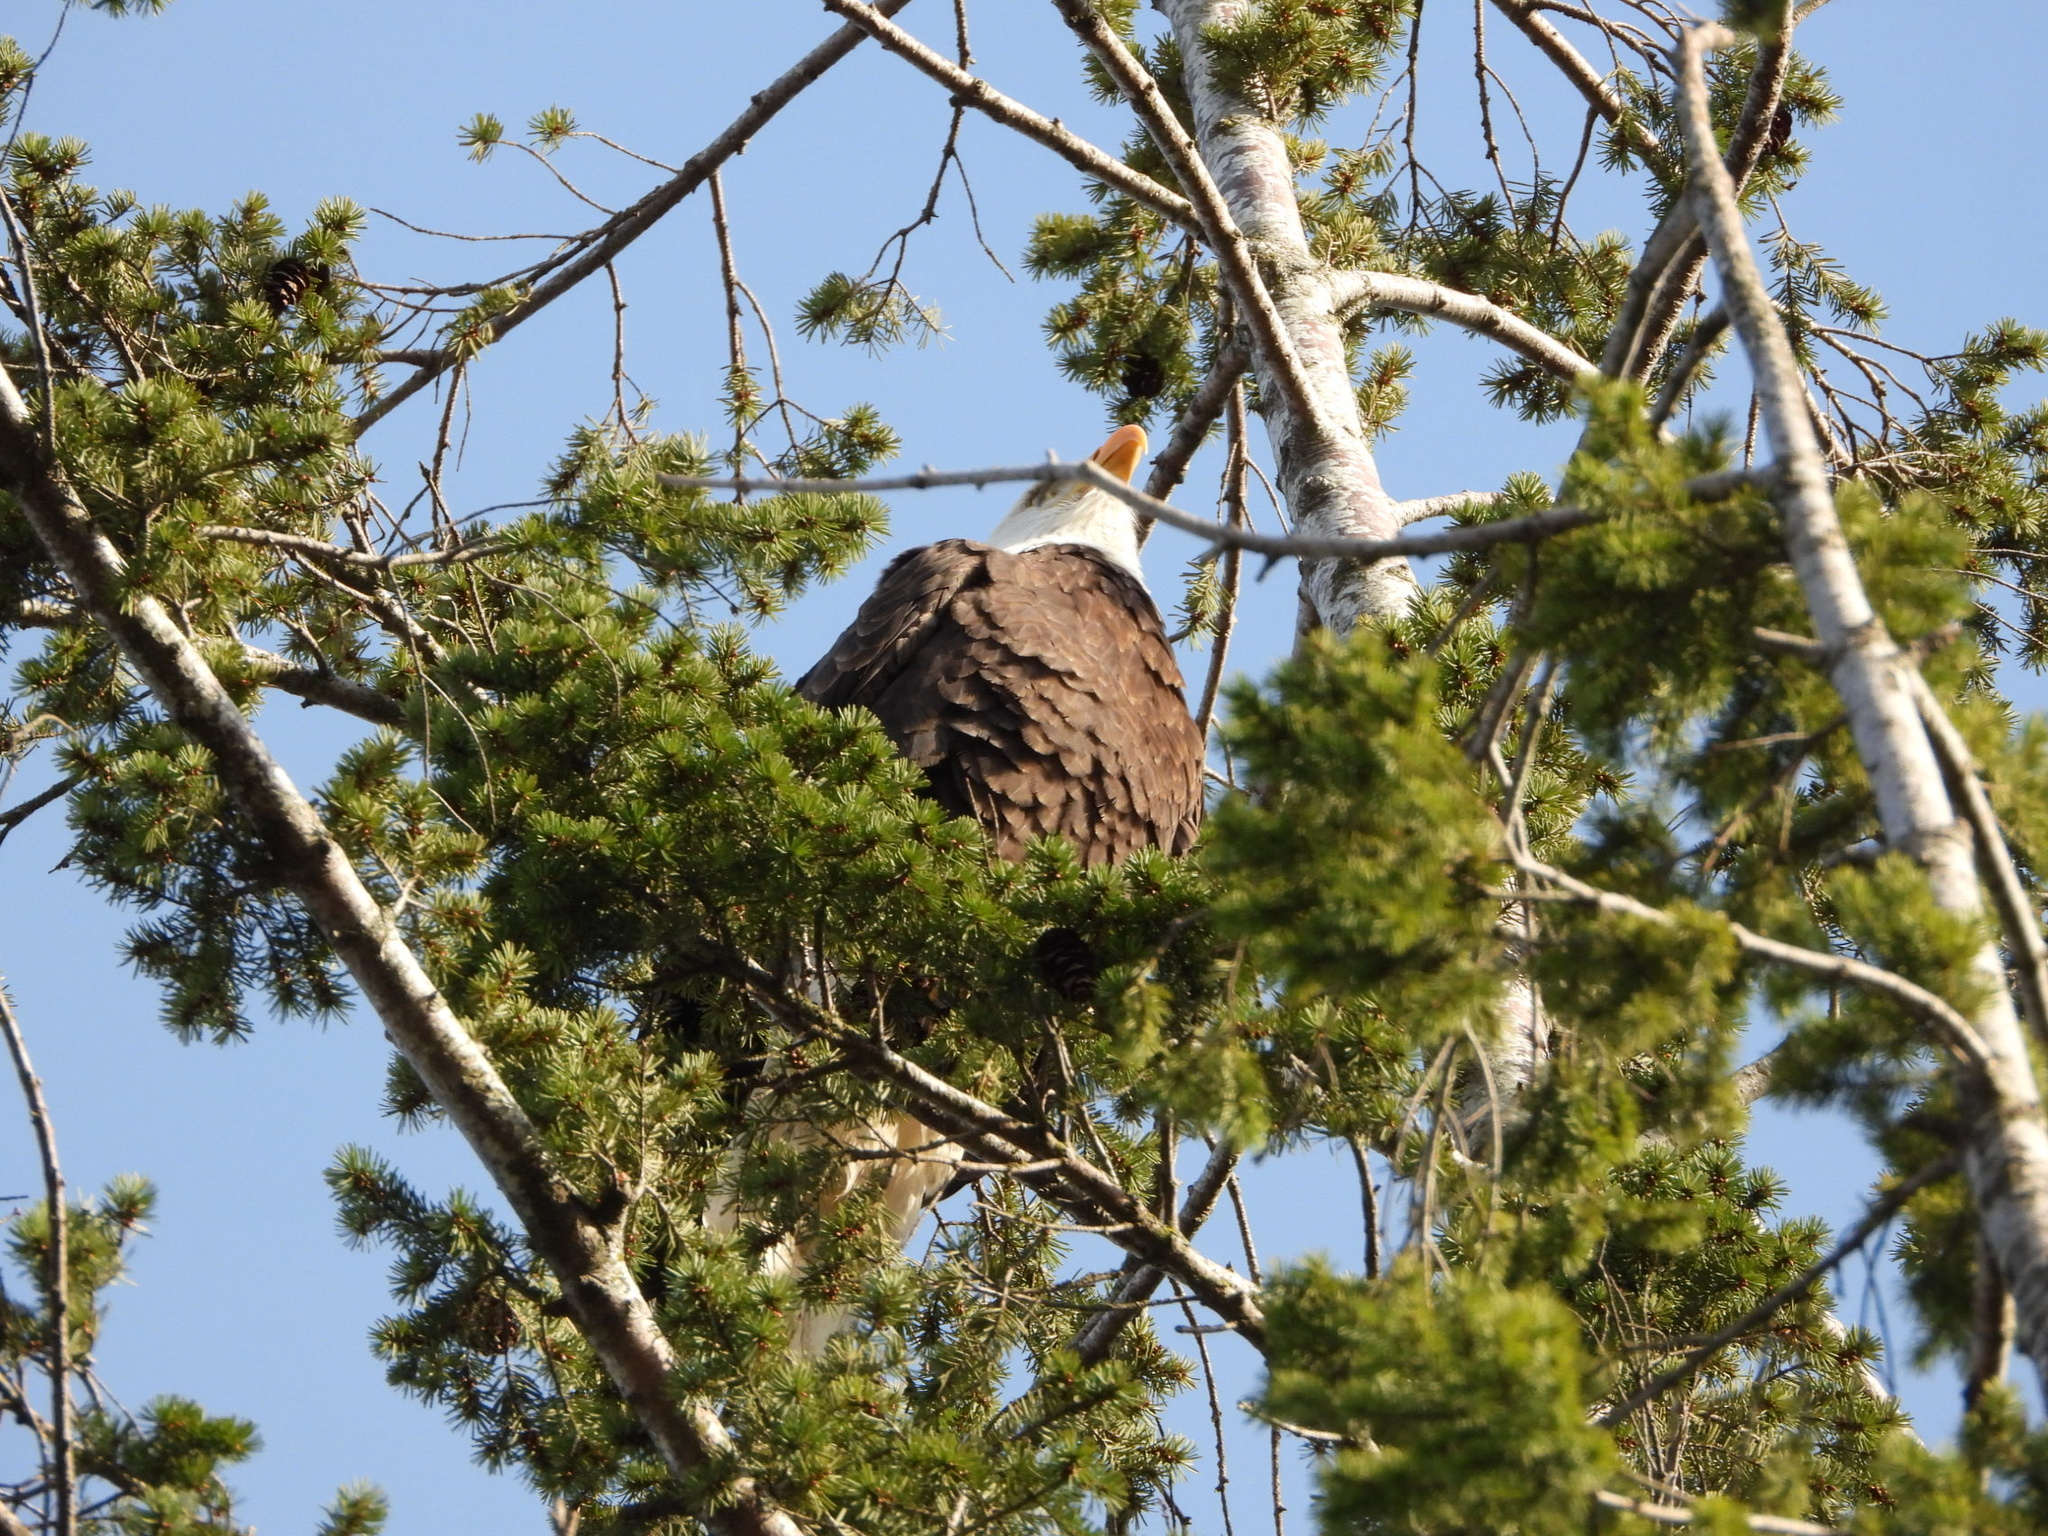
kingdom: Animalia
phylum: Chordata
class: Aves
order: Accipitriformes
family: Accipitridae
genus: Haliaeetus
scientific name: Haliaeetus leucocephalus
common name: Bald eagle
